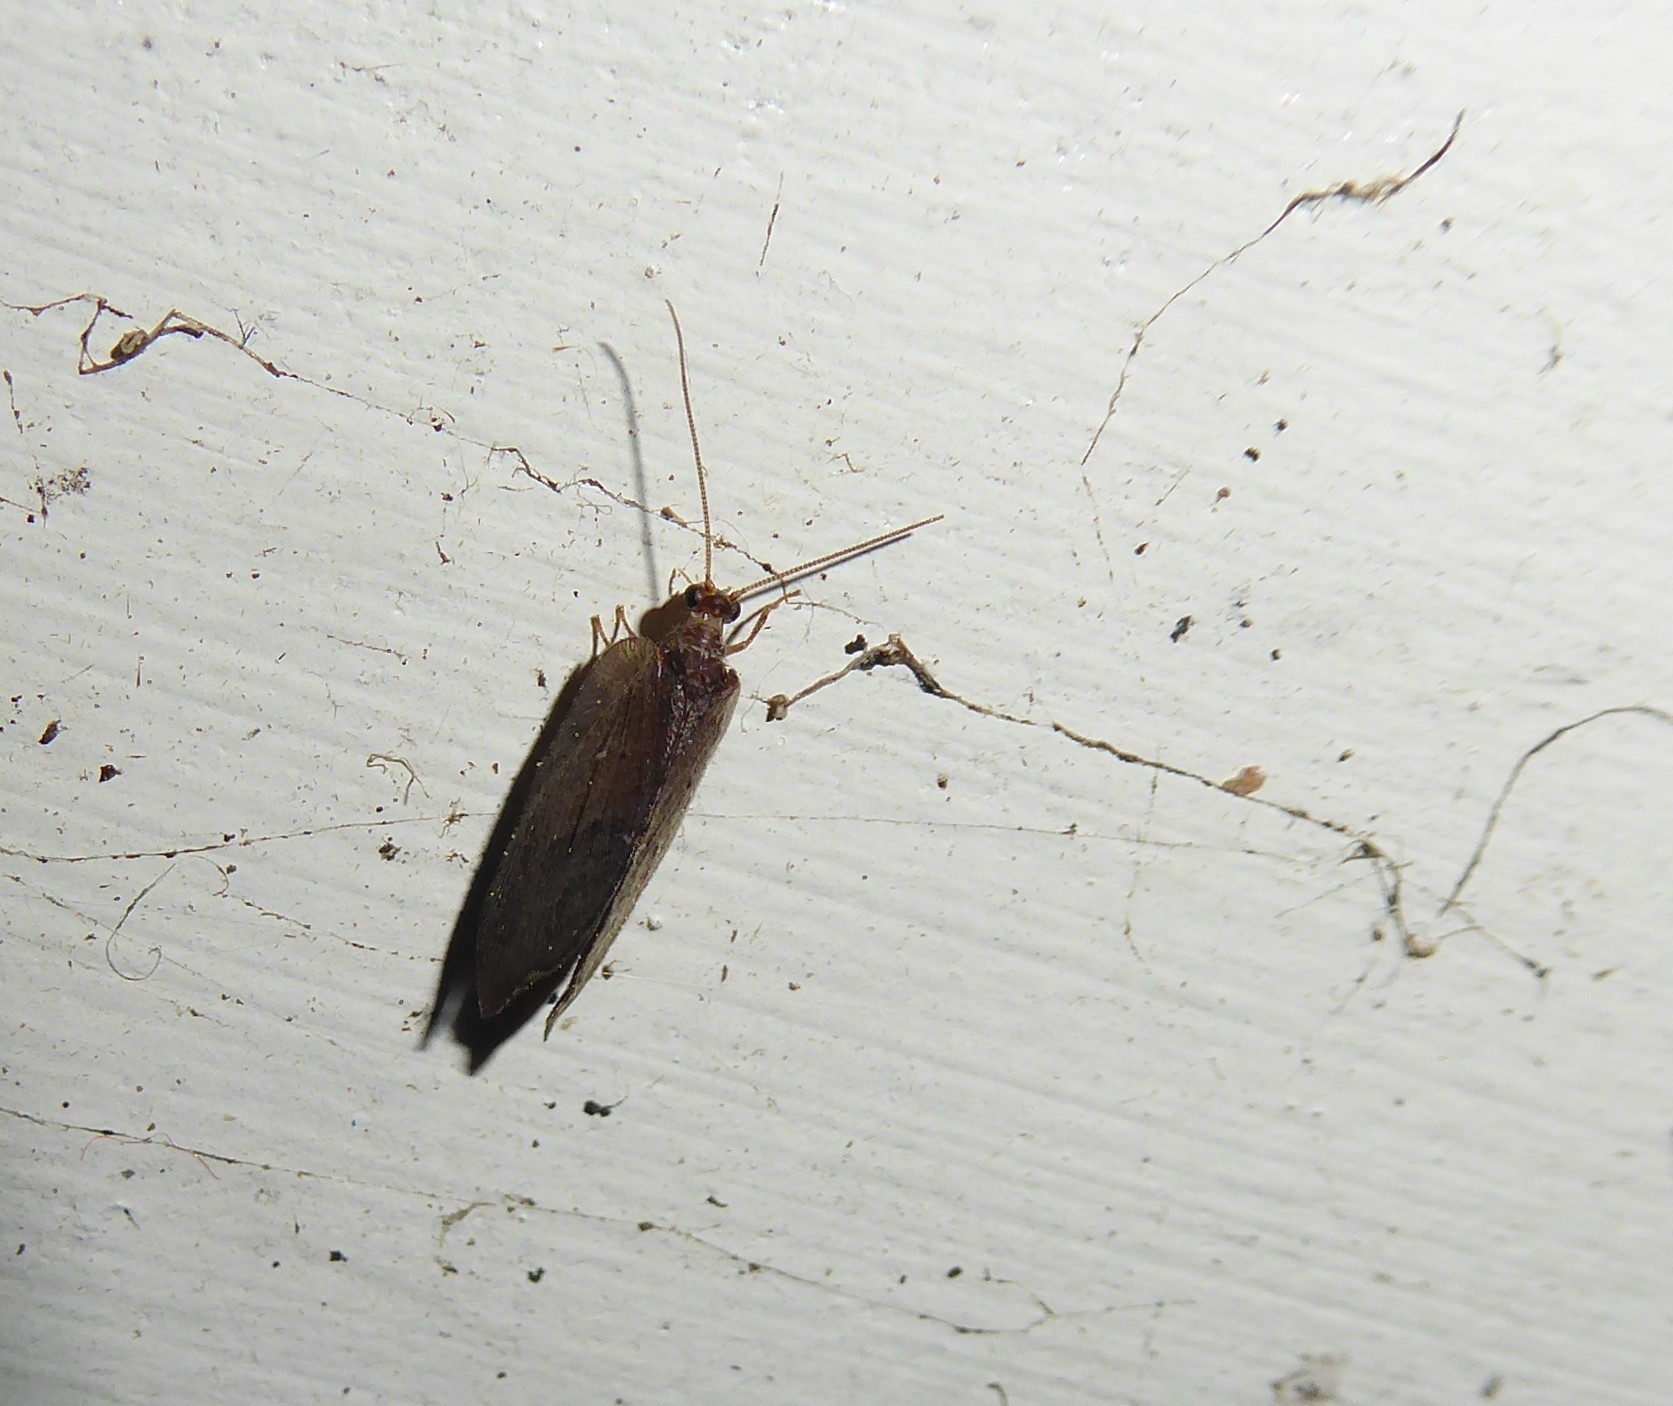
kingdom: Animalia
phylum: Arthropoda
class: Insecta
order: Neuroptera
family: Hemerobiidae
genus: Drepanacra
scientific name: Drepanacra binocula
